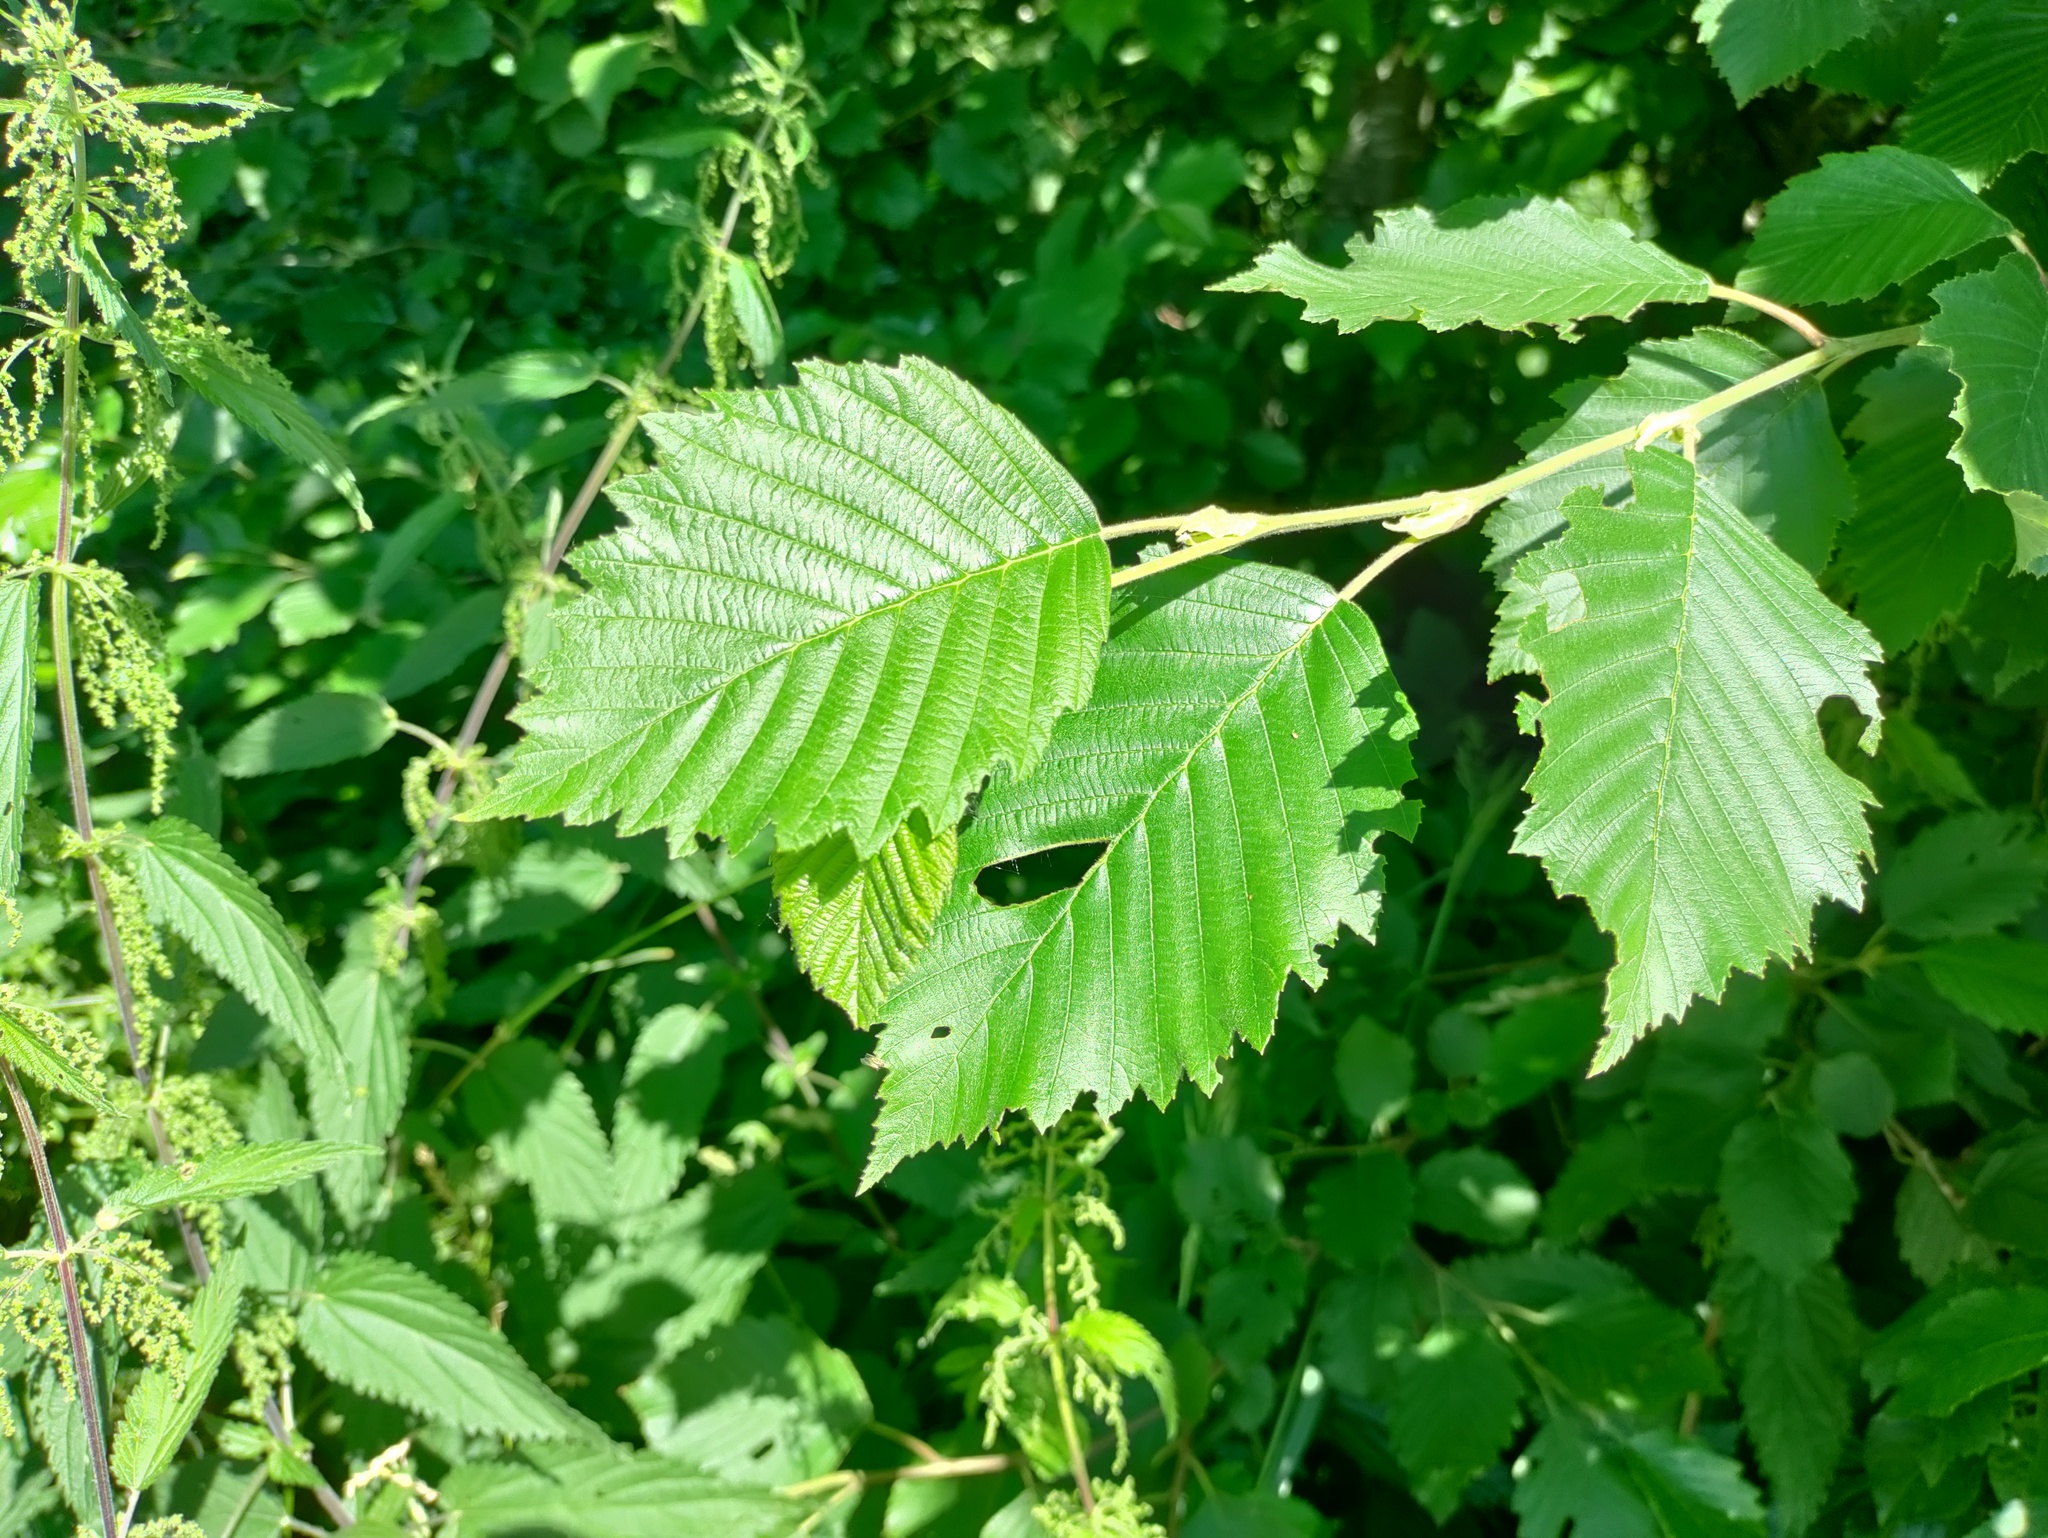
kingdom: Plantae
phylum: Tracheophyta
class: Magnoliopsida
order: Fagales
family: Betulaceae
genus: Alnus
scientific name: Alnus incana
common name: Grey alder
